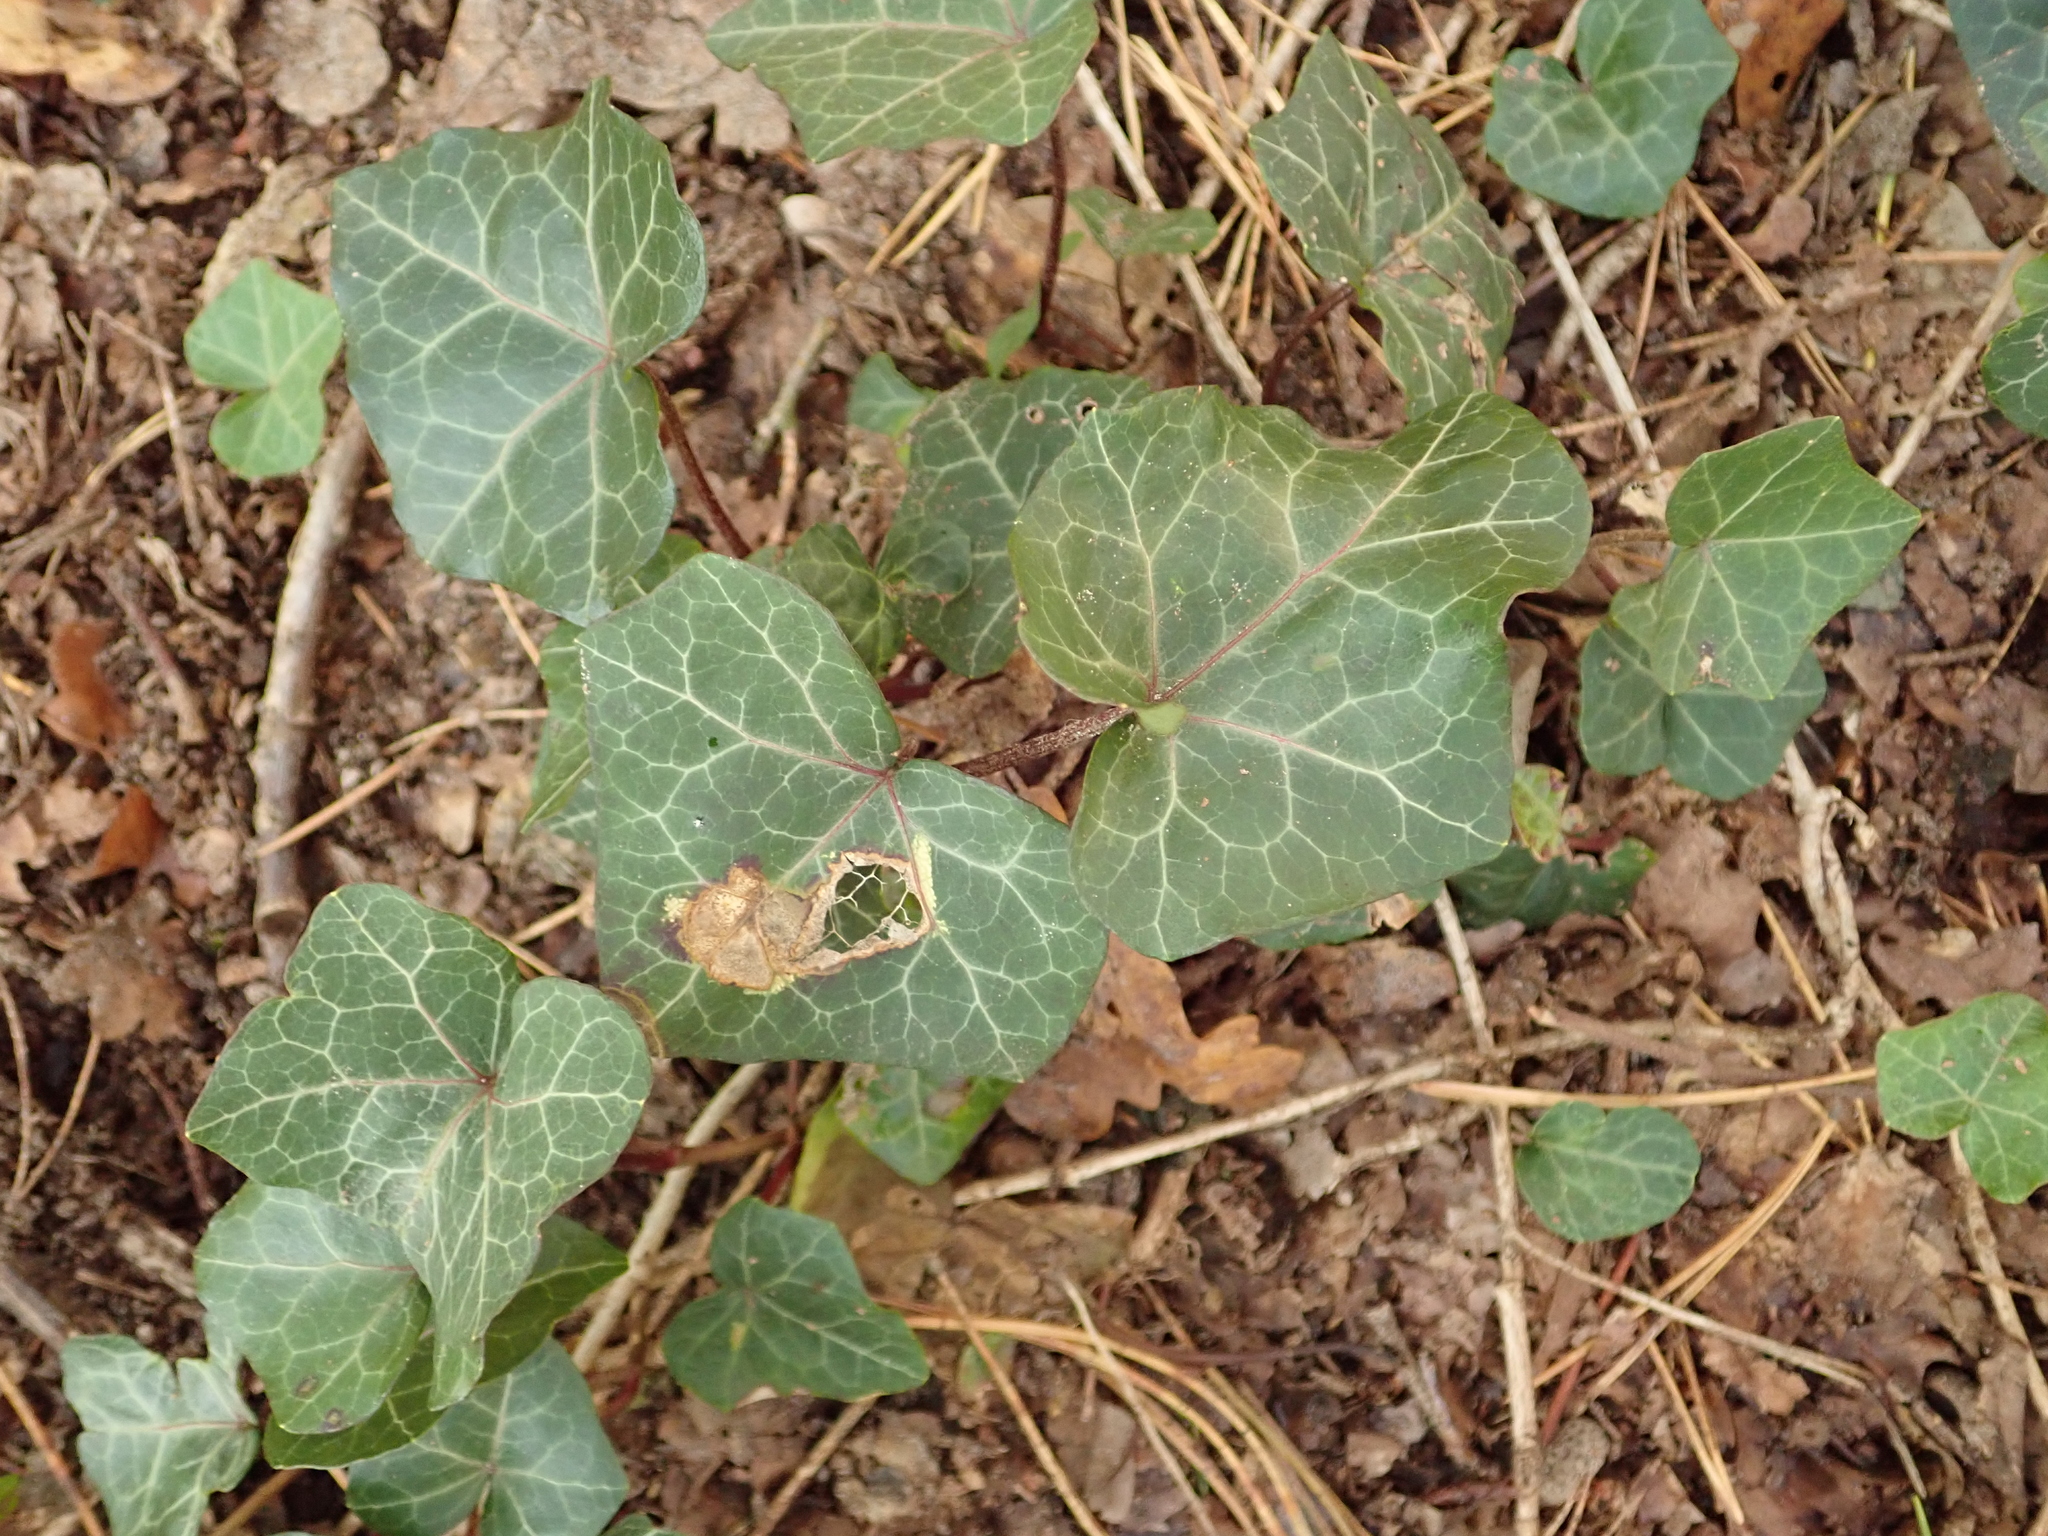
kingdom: Plantae
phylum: Tracheophyta
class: Magnoliopsida
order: Apiales
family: Araliaceae
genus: Hedera
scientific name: Hedera helix
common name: Ivy
